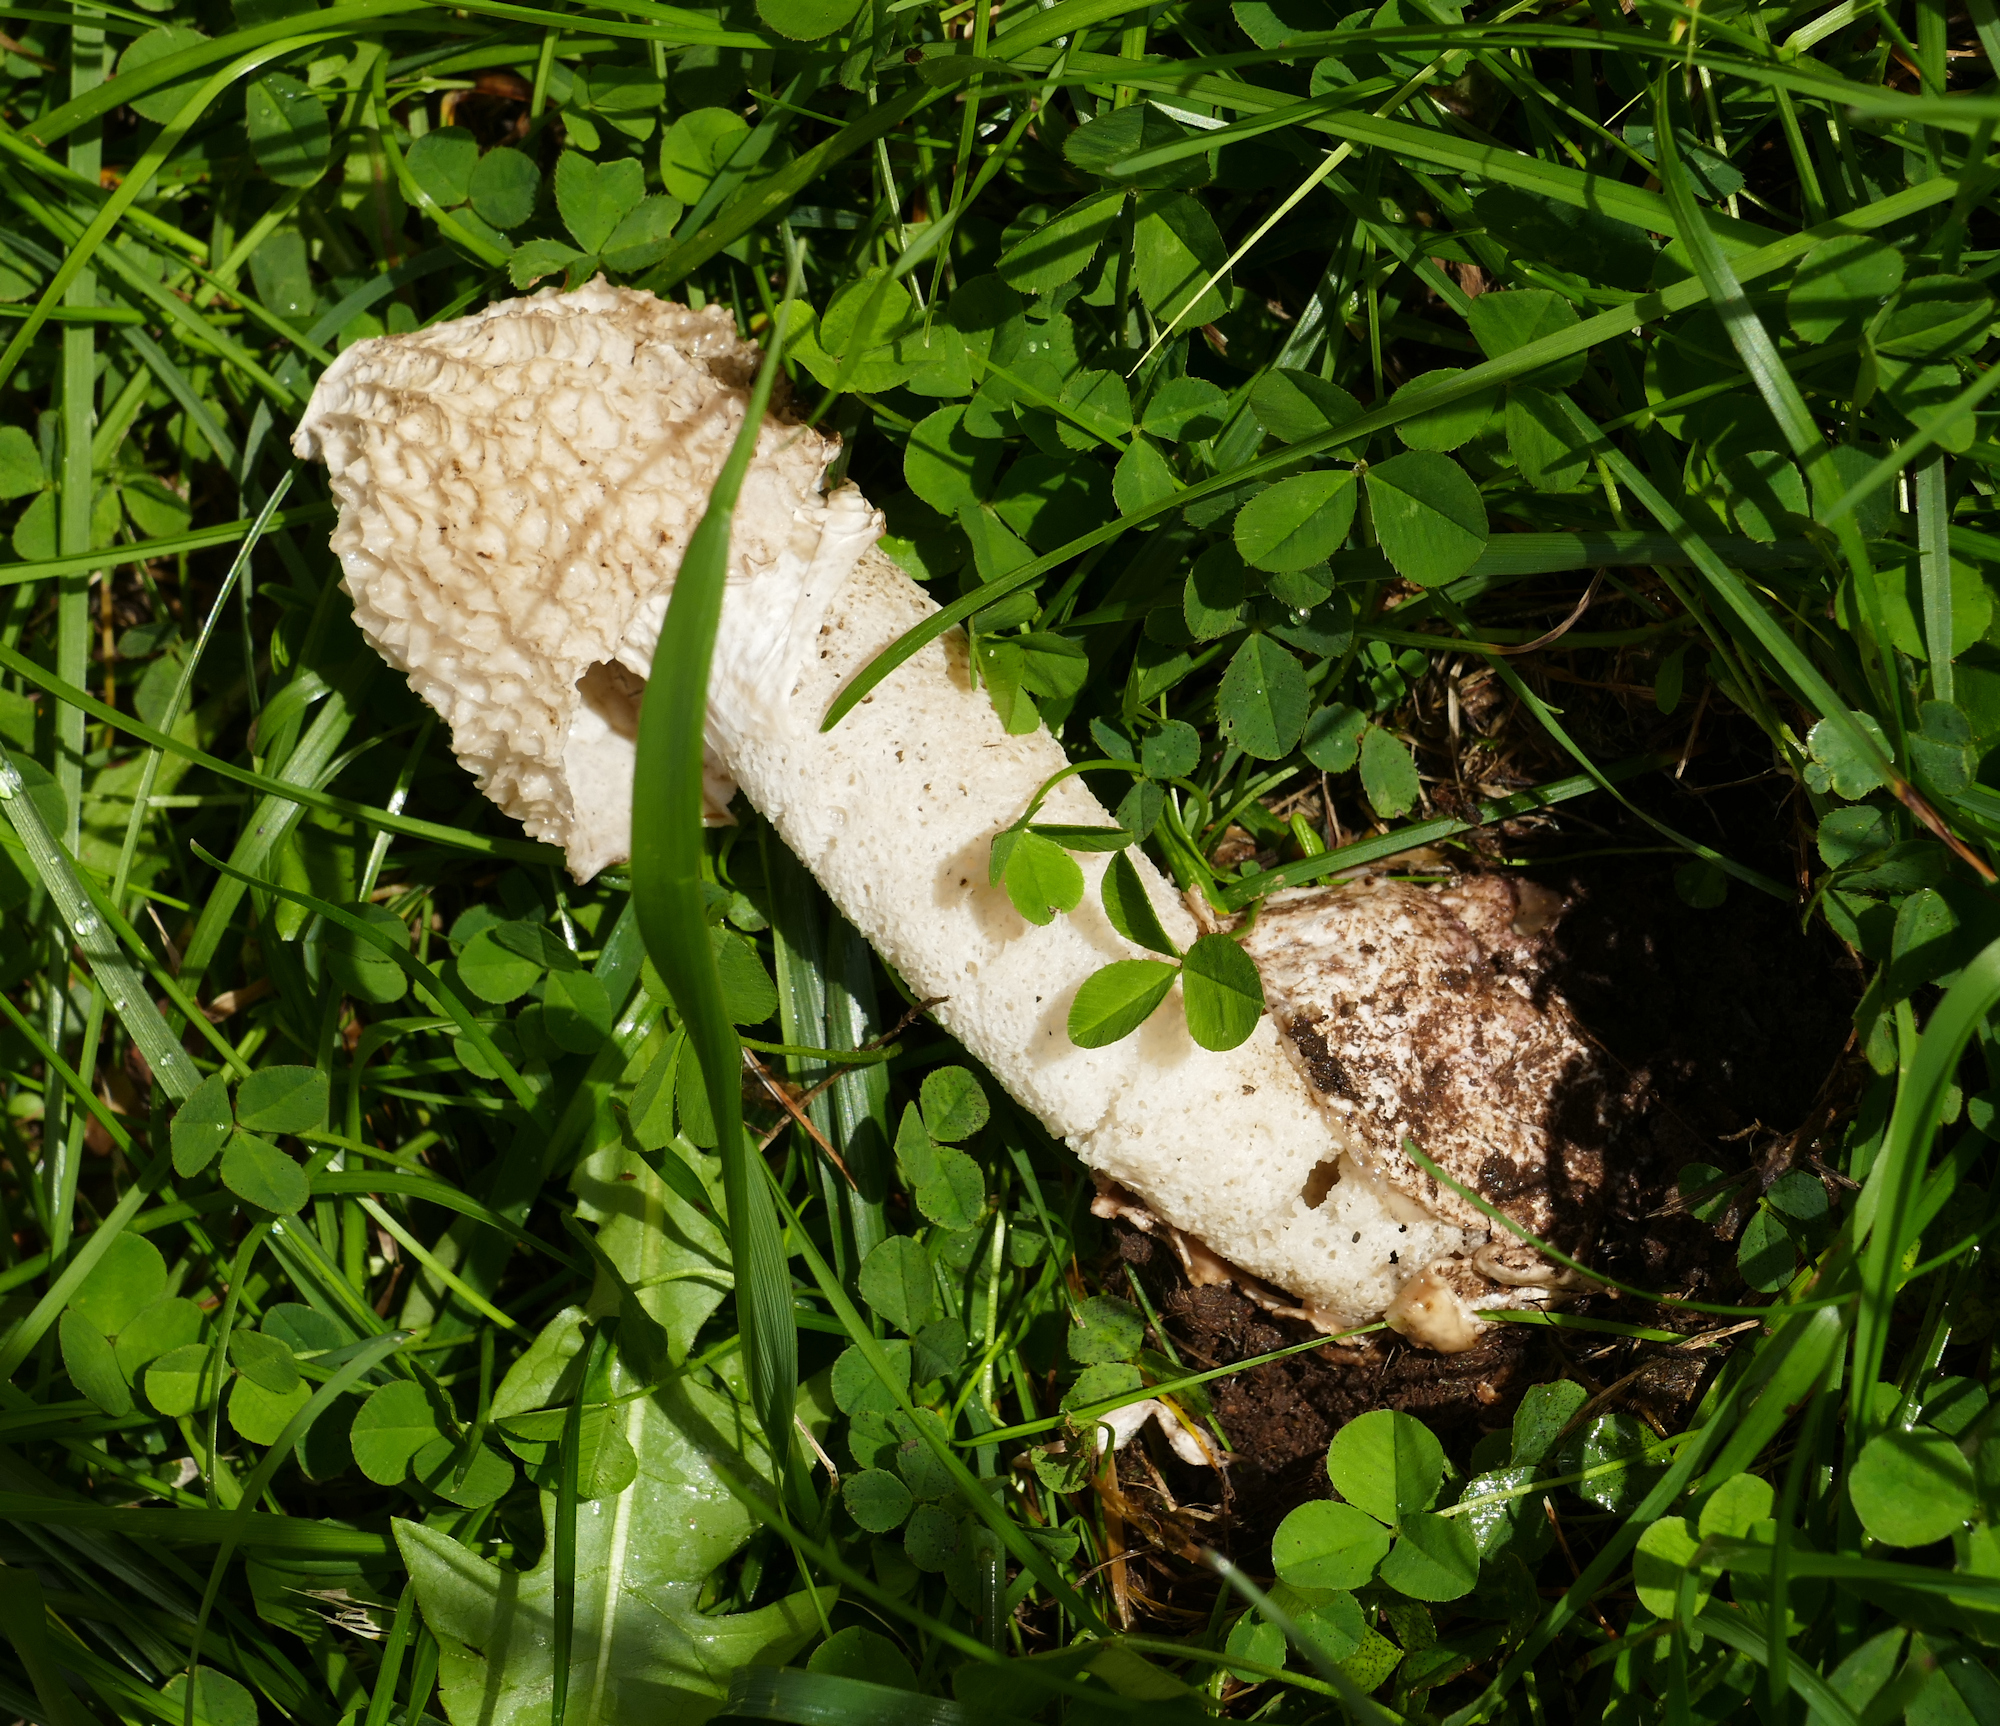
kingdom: Fungi
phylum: Basidiomycota
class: Agaricomycetes
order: Phallales
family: Phallaceae
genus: Phallus
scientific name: Phallus impudicus
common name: Common stinkhorn
